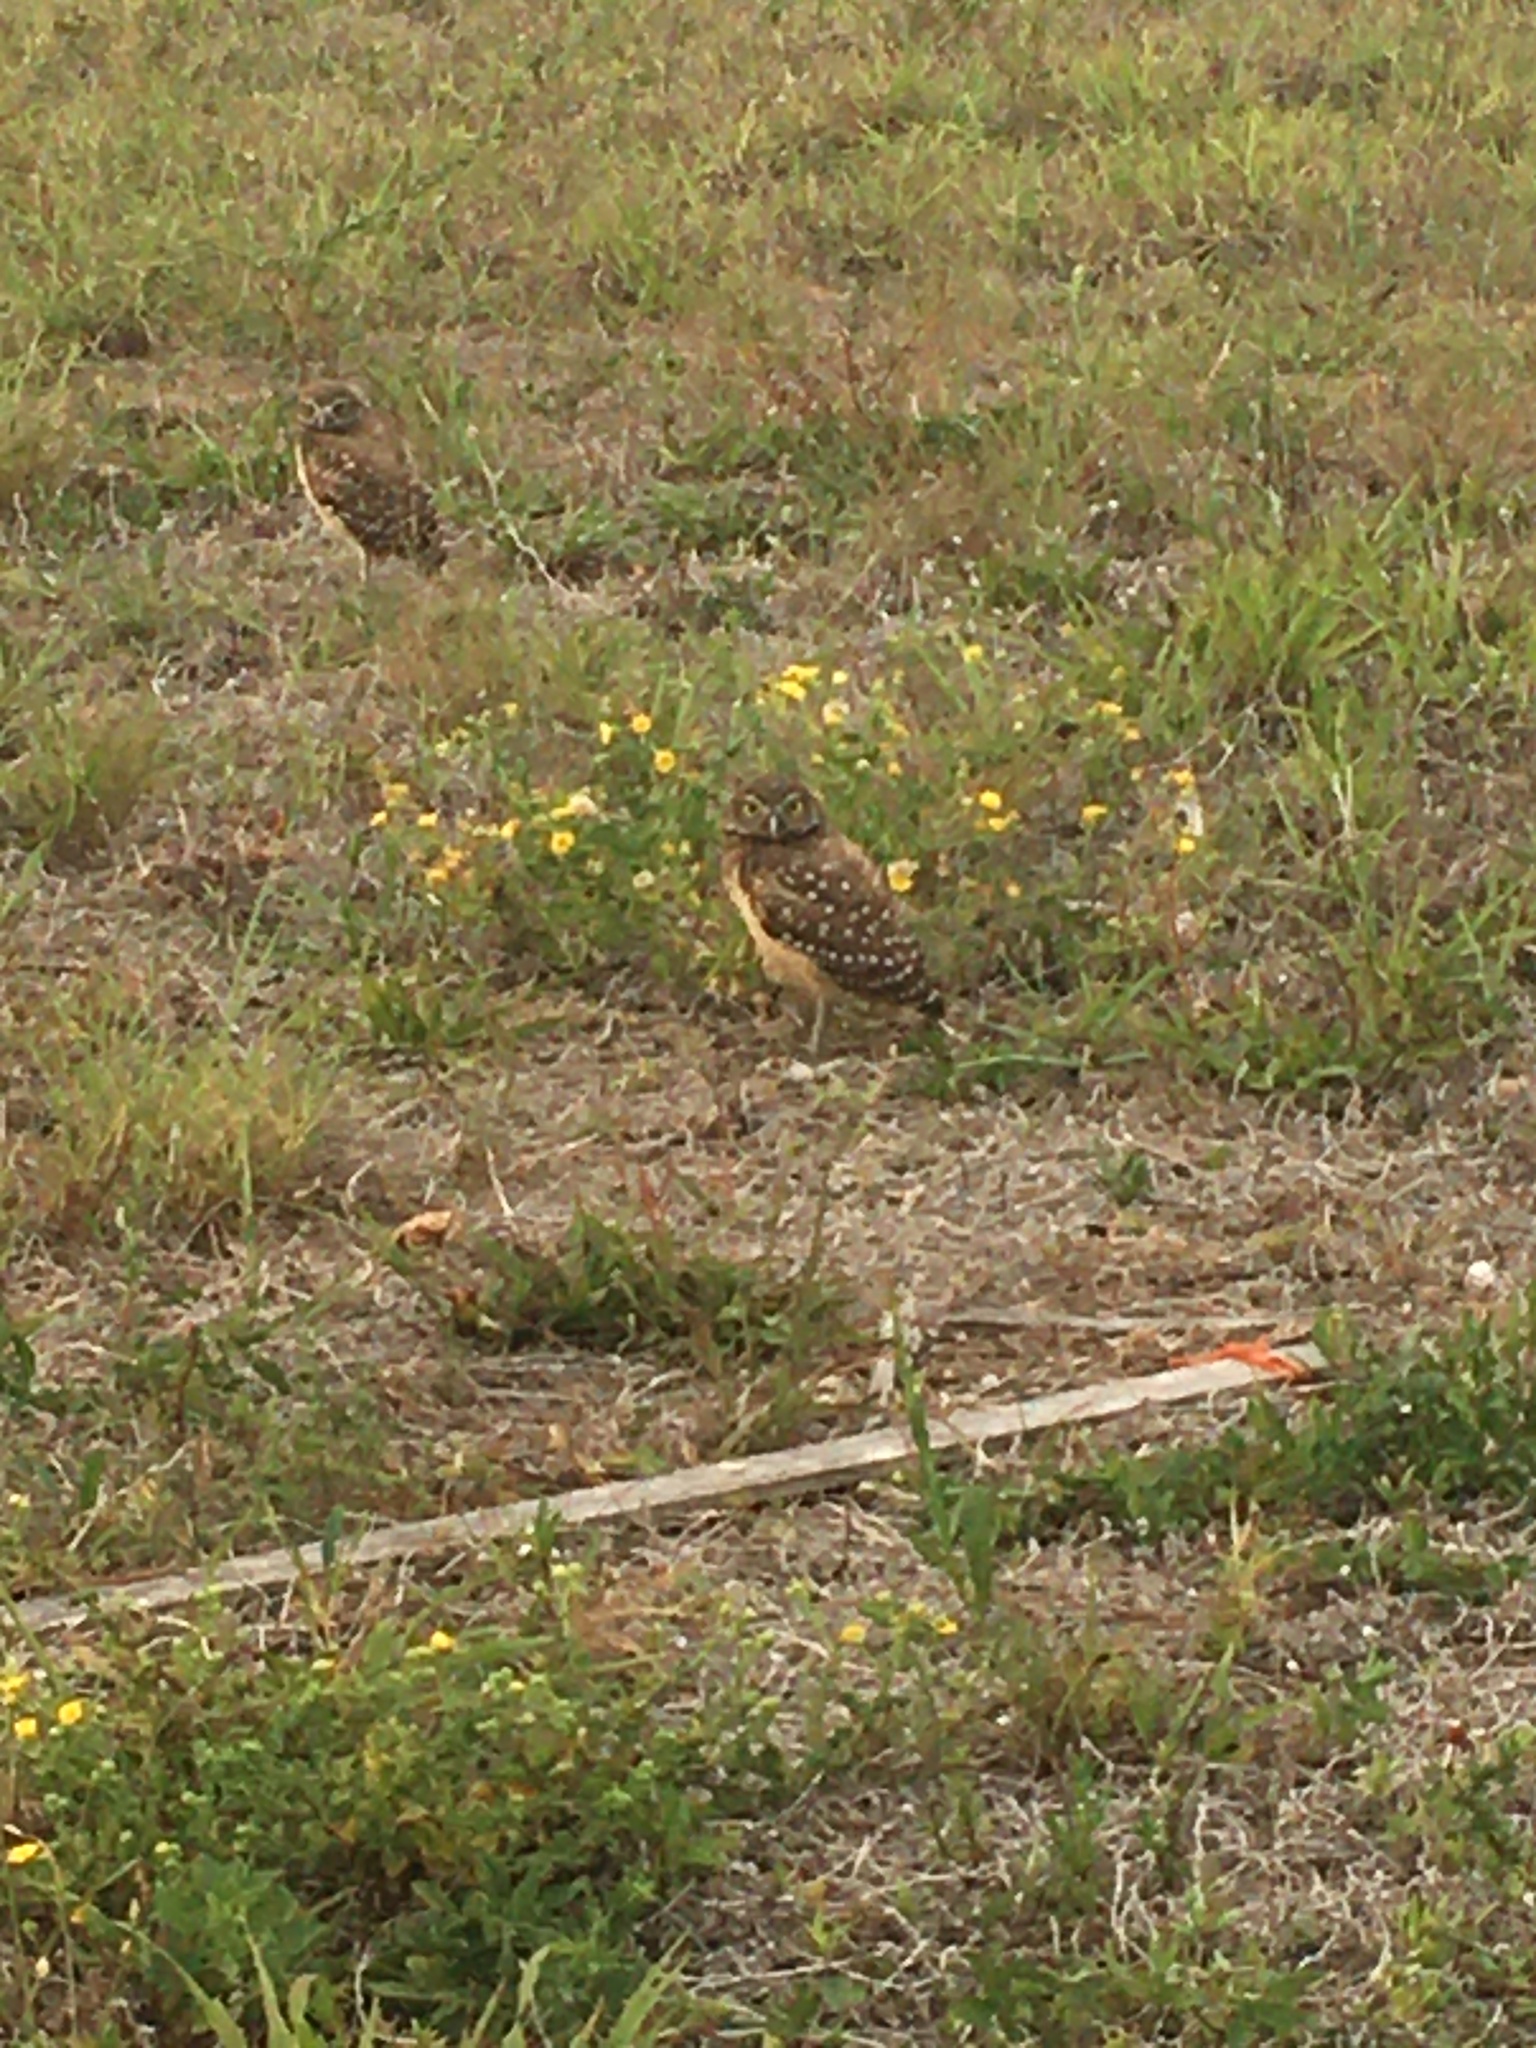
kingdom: Animalia
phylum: Chordata
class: Aves
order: Strigiformes
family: Strigidae
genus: Athene
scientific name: Athene cunicularia
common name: Burrowing owl
